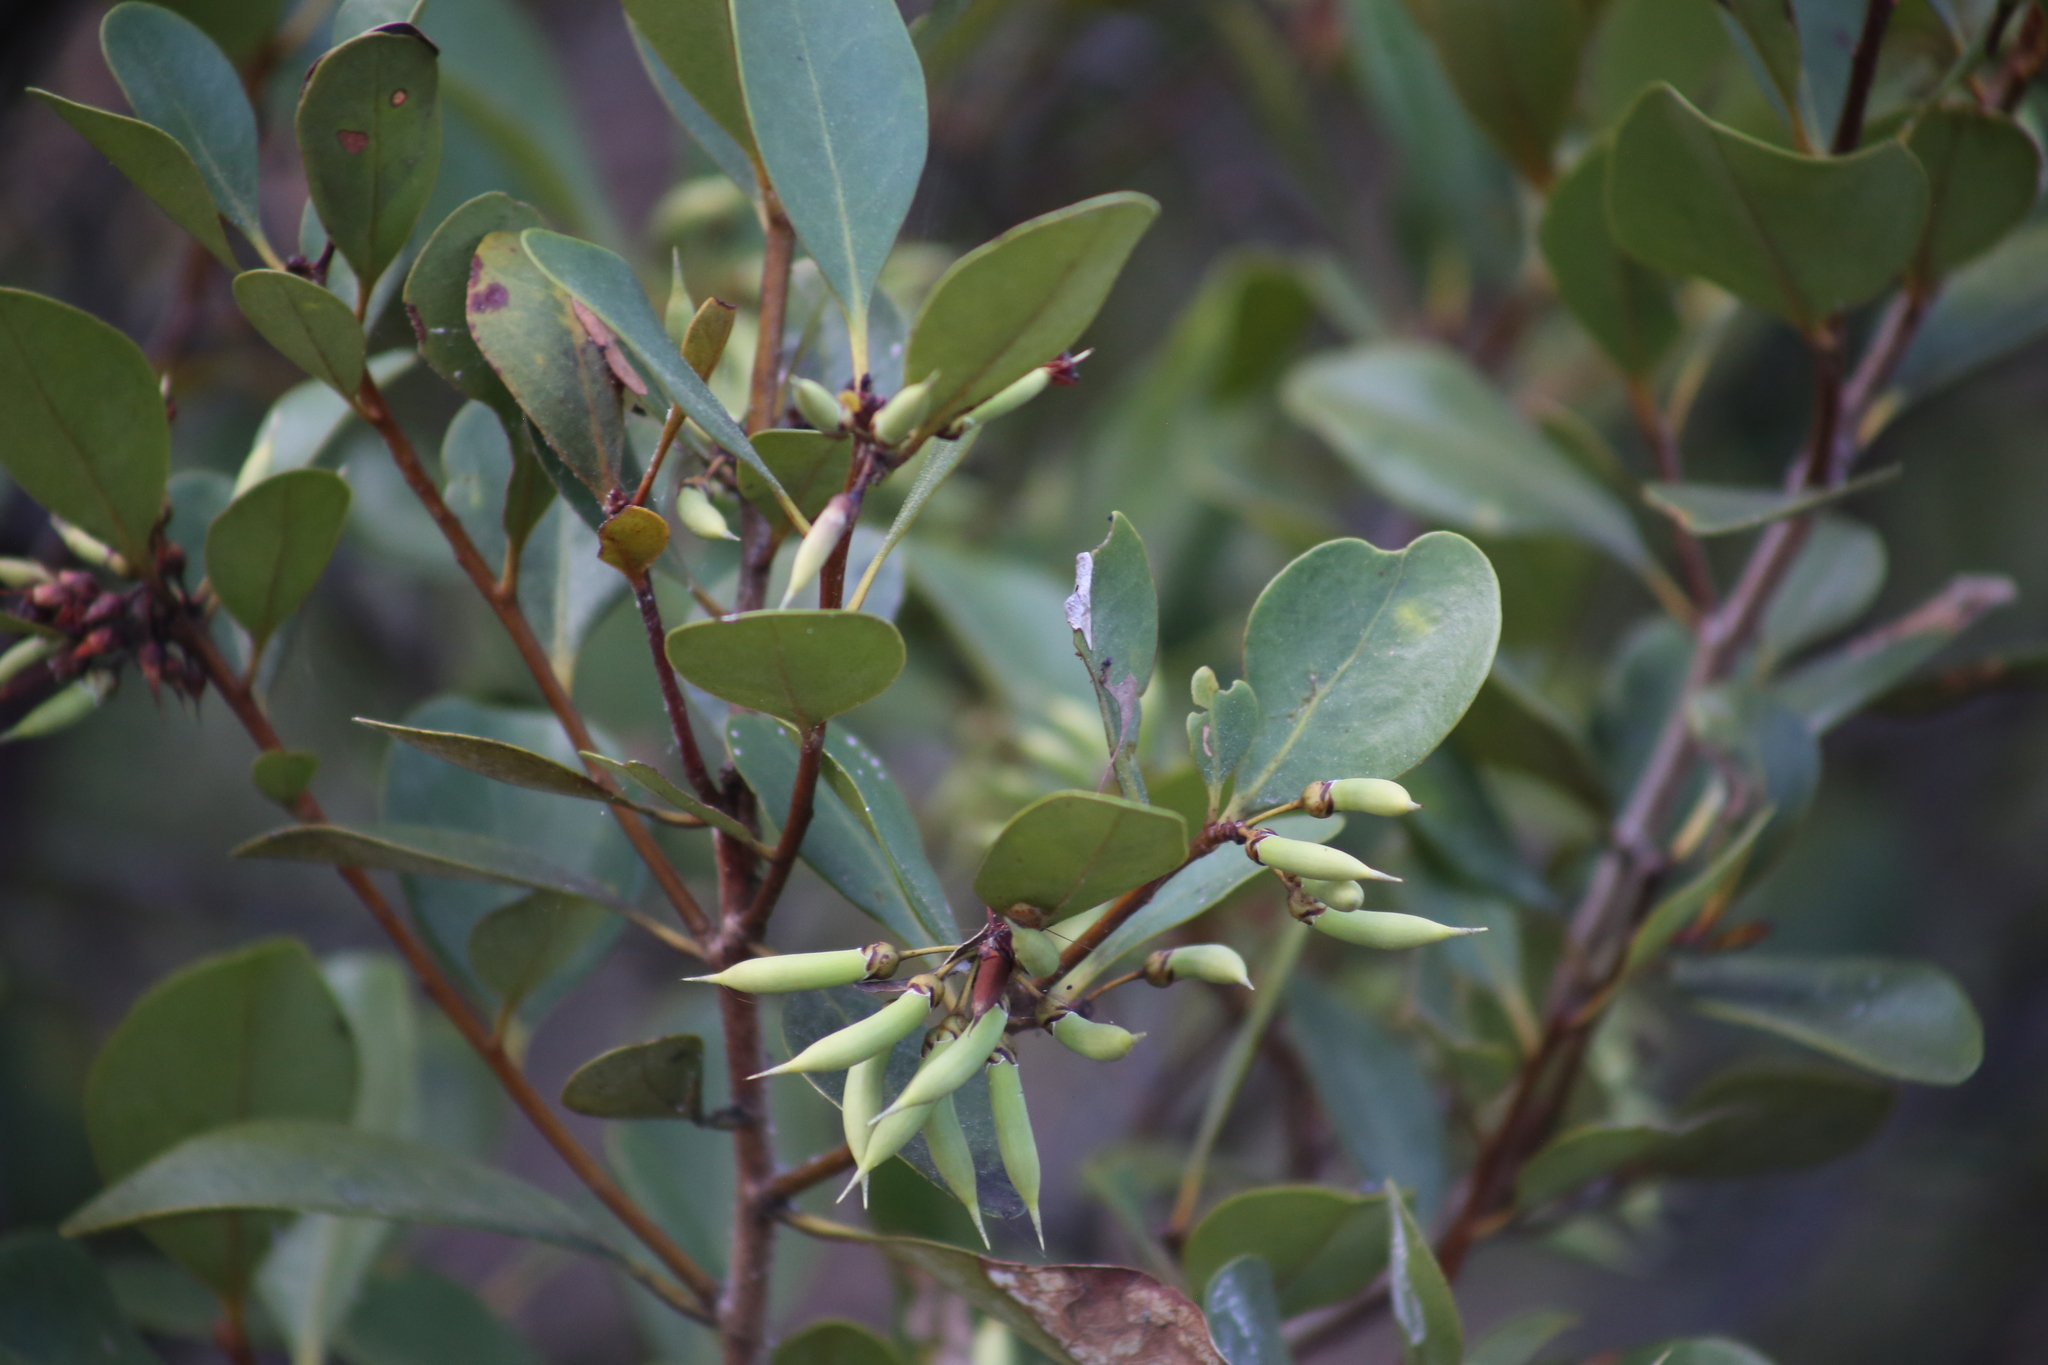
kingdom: Plantae
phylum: Tracheophyta
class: Magnoliopsida
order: Ericales
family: Primulaceae
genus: Aegiceras
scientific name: Aegiceras corniculatum
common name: River mangrove
